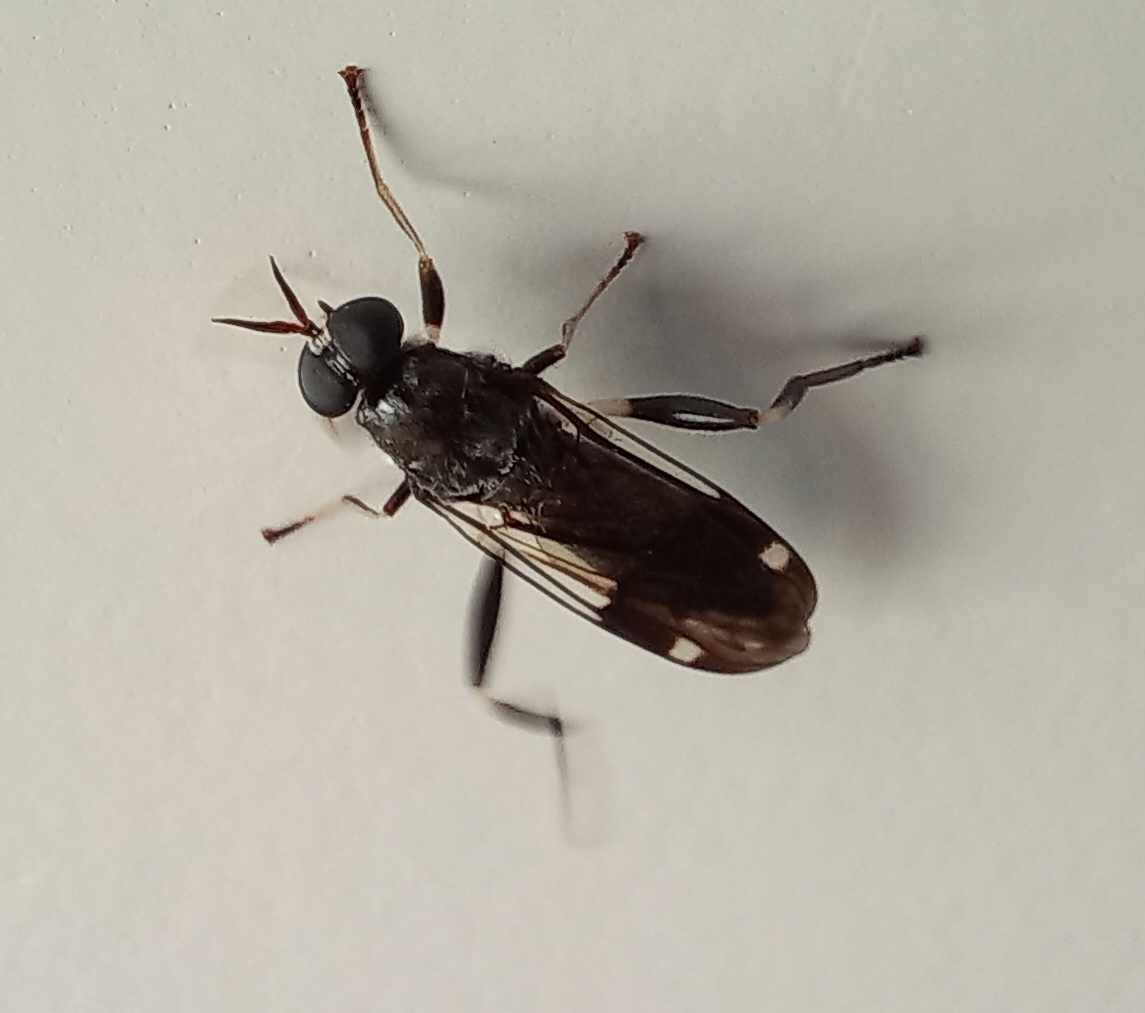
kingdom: Animalia
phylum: Arthropoda
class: Insecta
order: Diptera
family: Stratiomyidae
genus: Exaireta
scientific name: Exaireta spinigera
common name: Blue soldier fly
